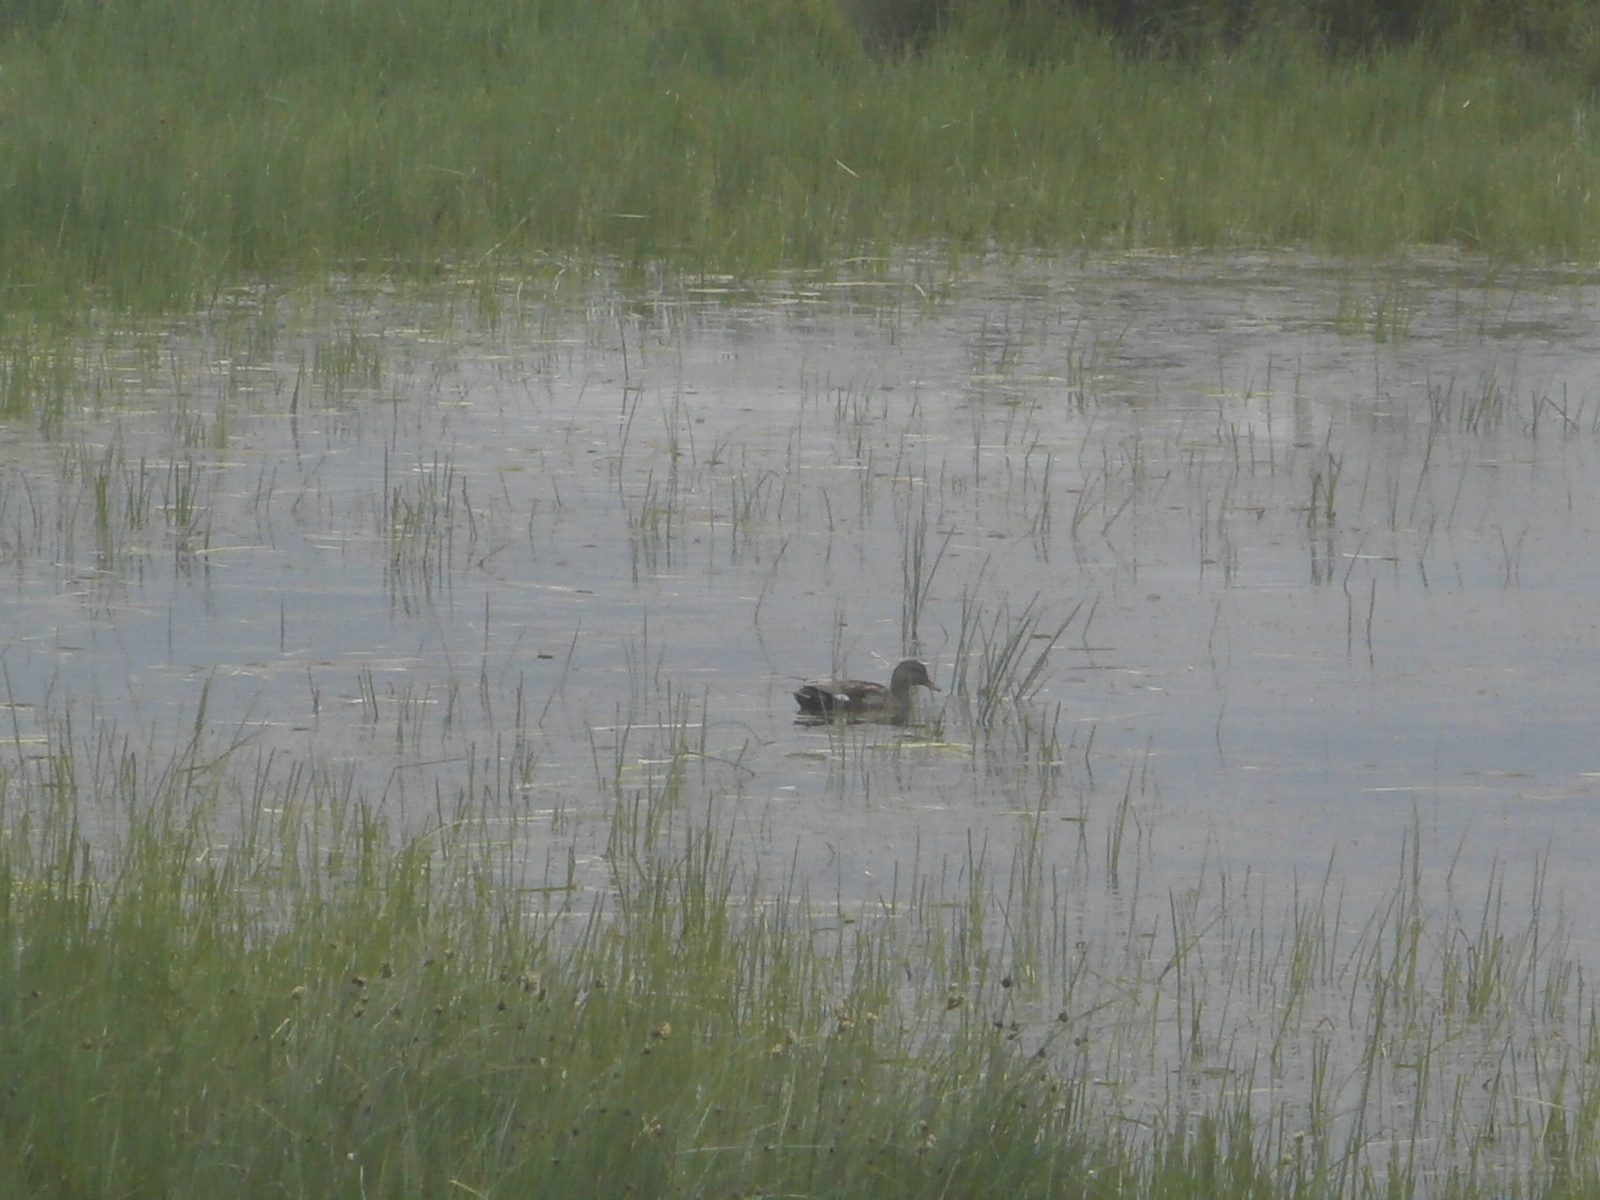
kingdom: Animalia
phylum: Chordata
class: Aves
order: Anseriformes
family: Anatidae
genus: Mareca
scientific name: Mareca strepera
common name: Gadwall
